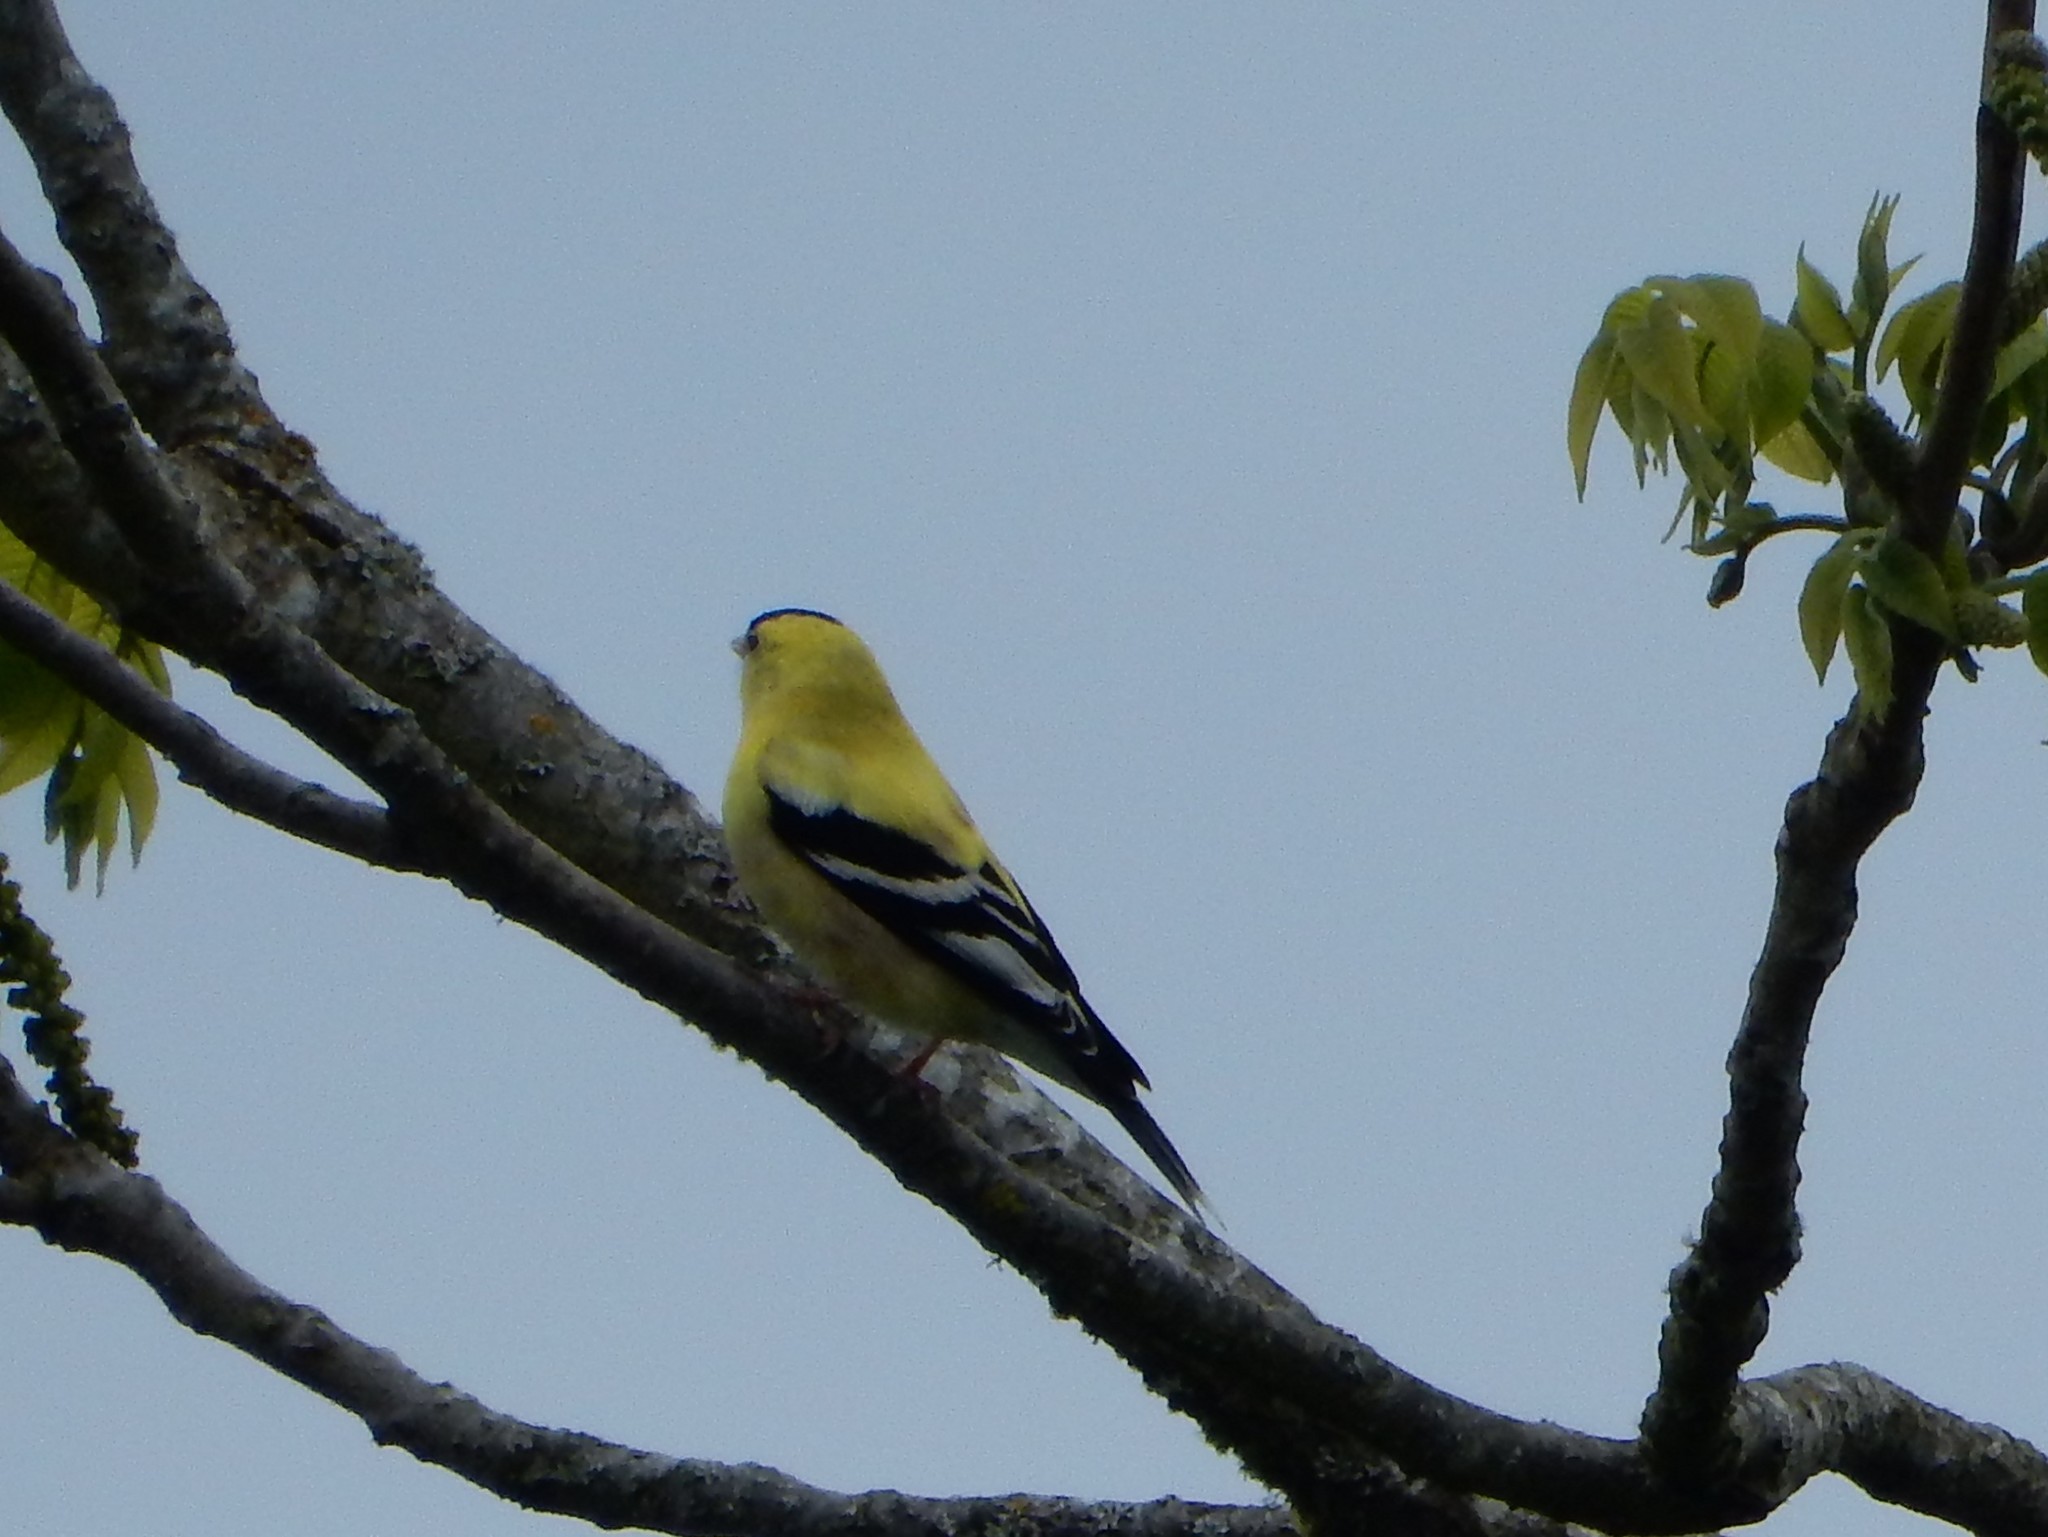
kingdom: Animalia
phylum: Chordata
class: Aves
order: Passeriformes
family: Fringillidae
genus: Spinus
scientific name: Spinus tristis
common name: American goldfinch
